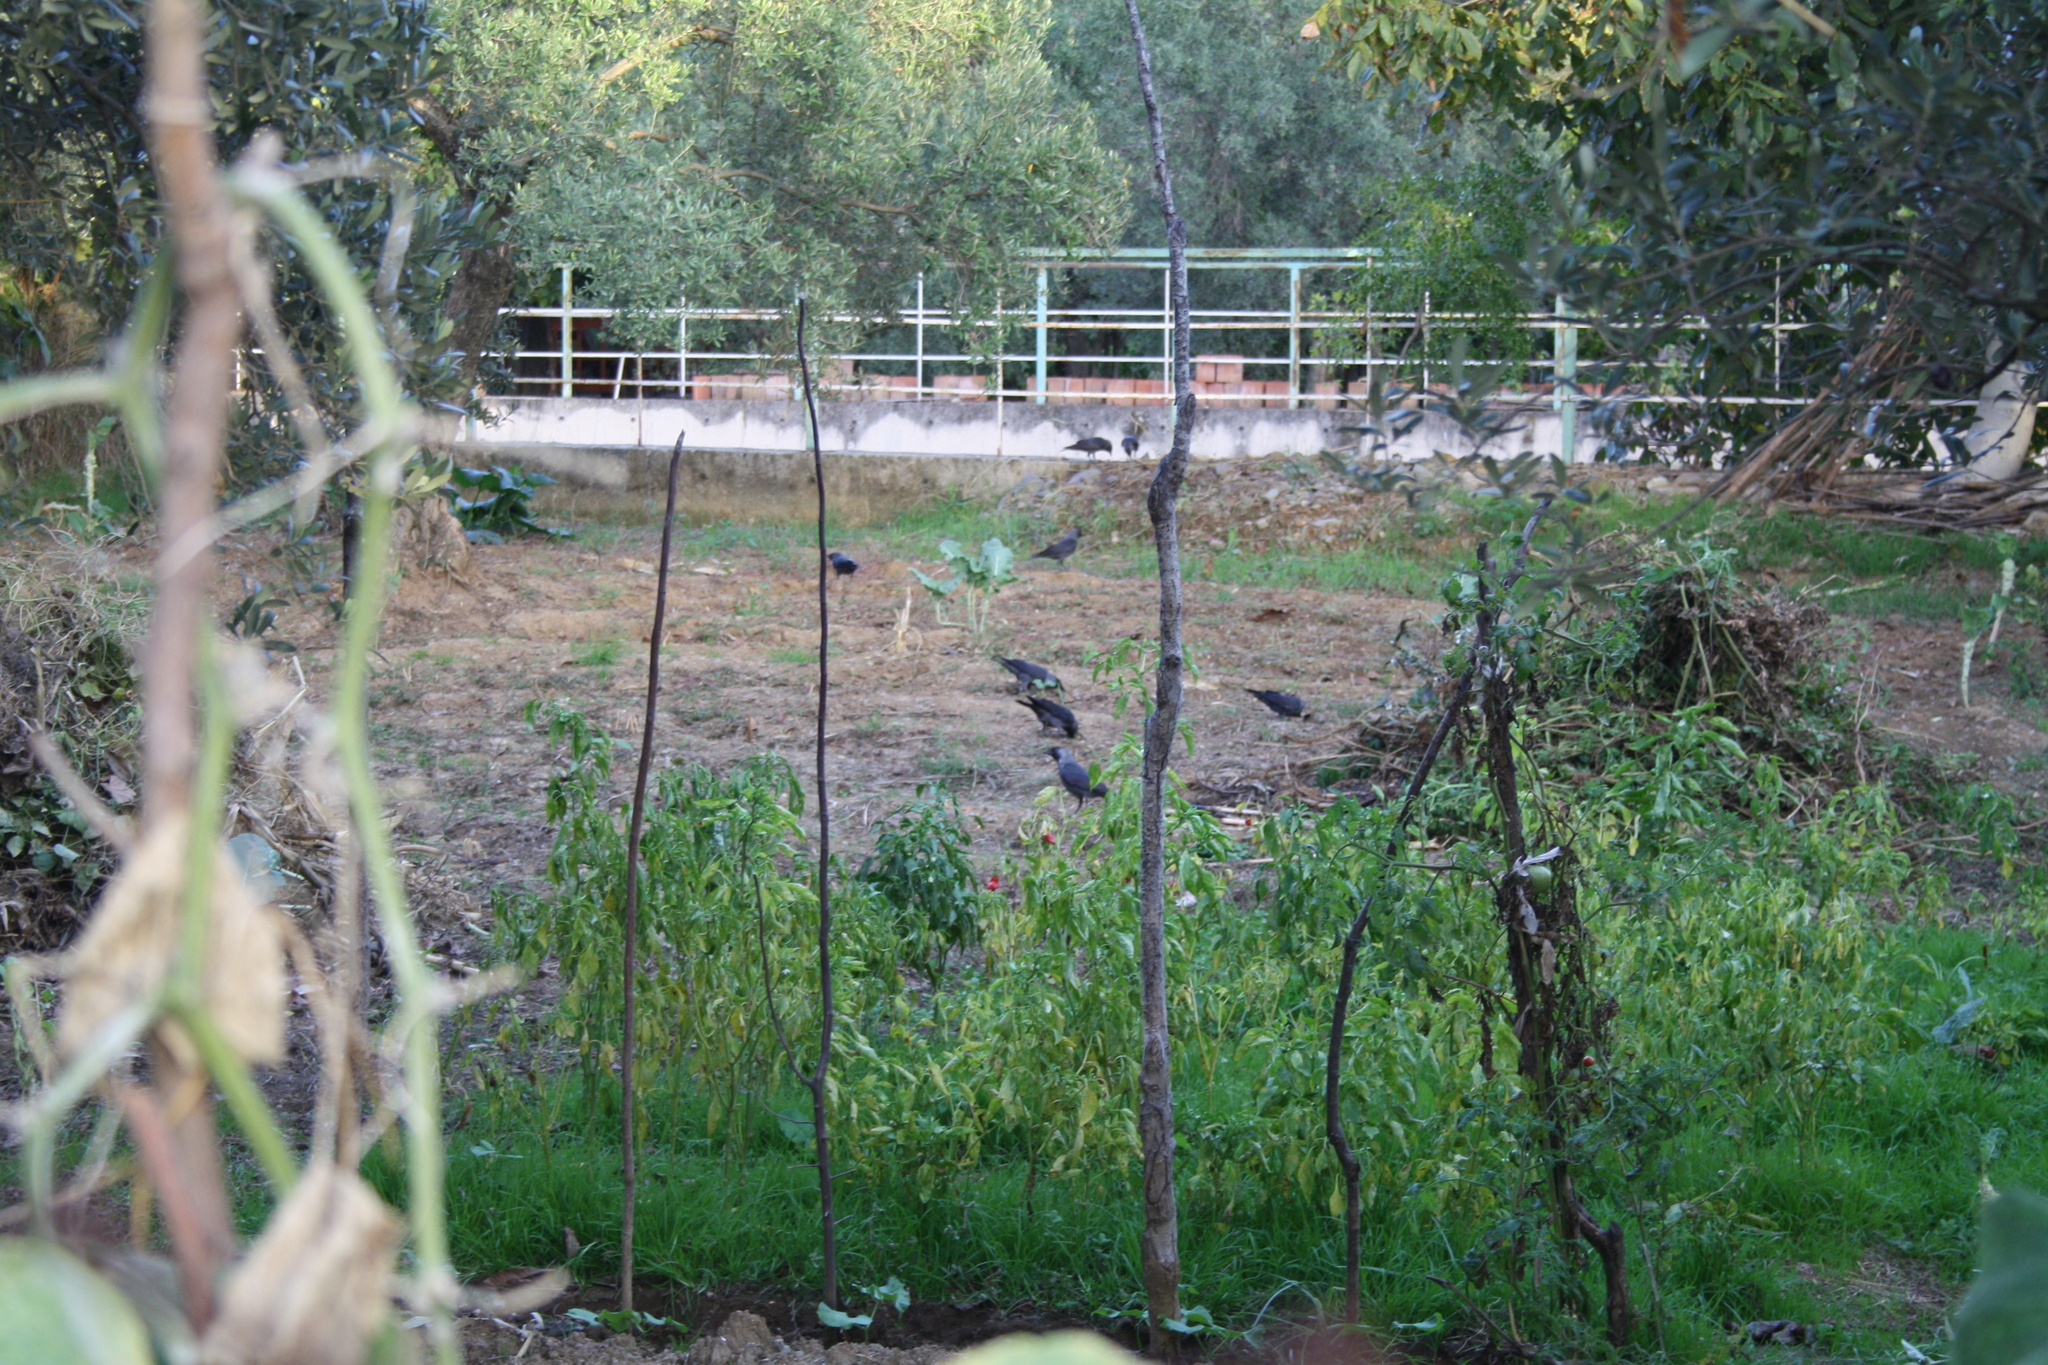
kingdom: Animalia
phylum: Chordata
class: Aves
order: Passeriformes
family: Corvidae
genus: Coloeus
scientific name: Coloeus monedula
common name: Western jackdaw
